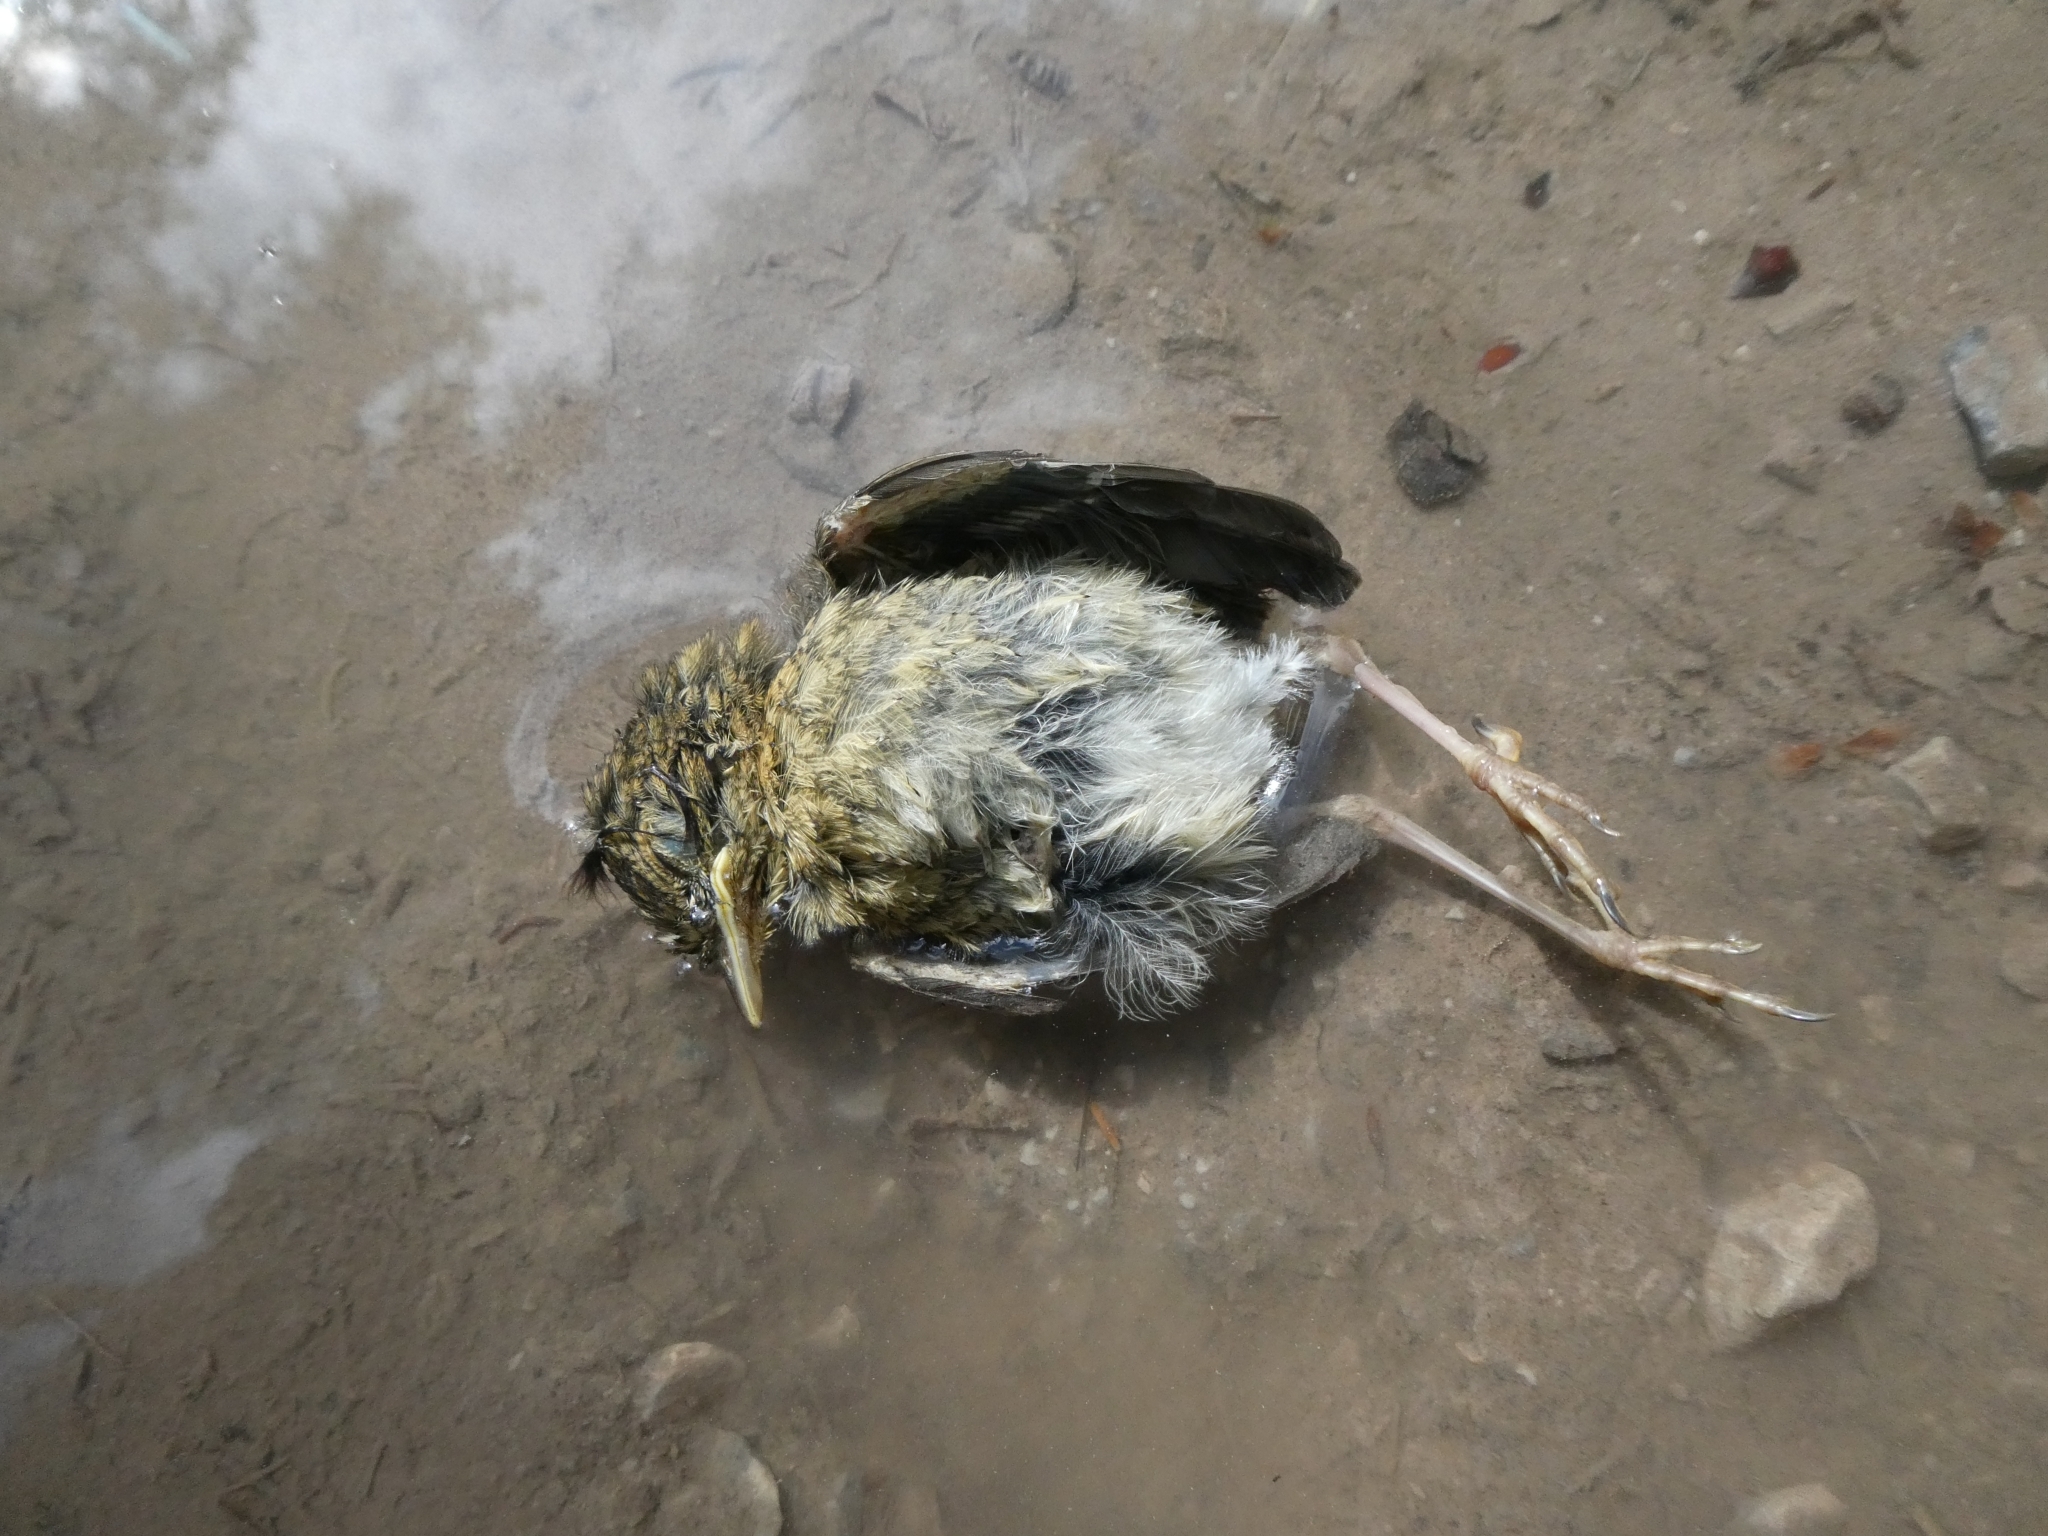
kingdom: Animalia
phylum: Chordata
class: Aves
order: Passeriformes
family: Muscicapidae
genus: Erithacus
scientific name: Erithacus rubecula
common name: European robin
